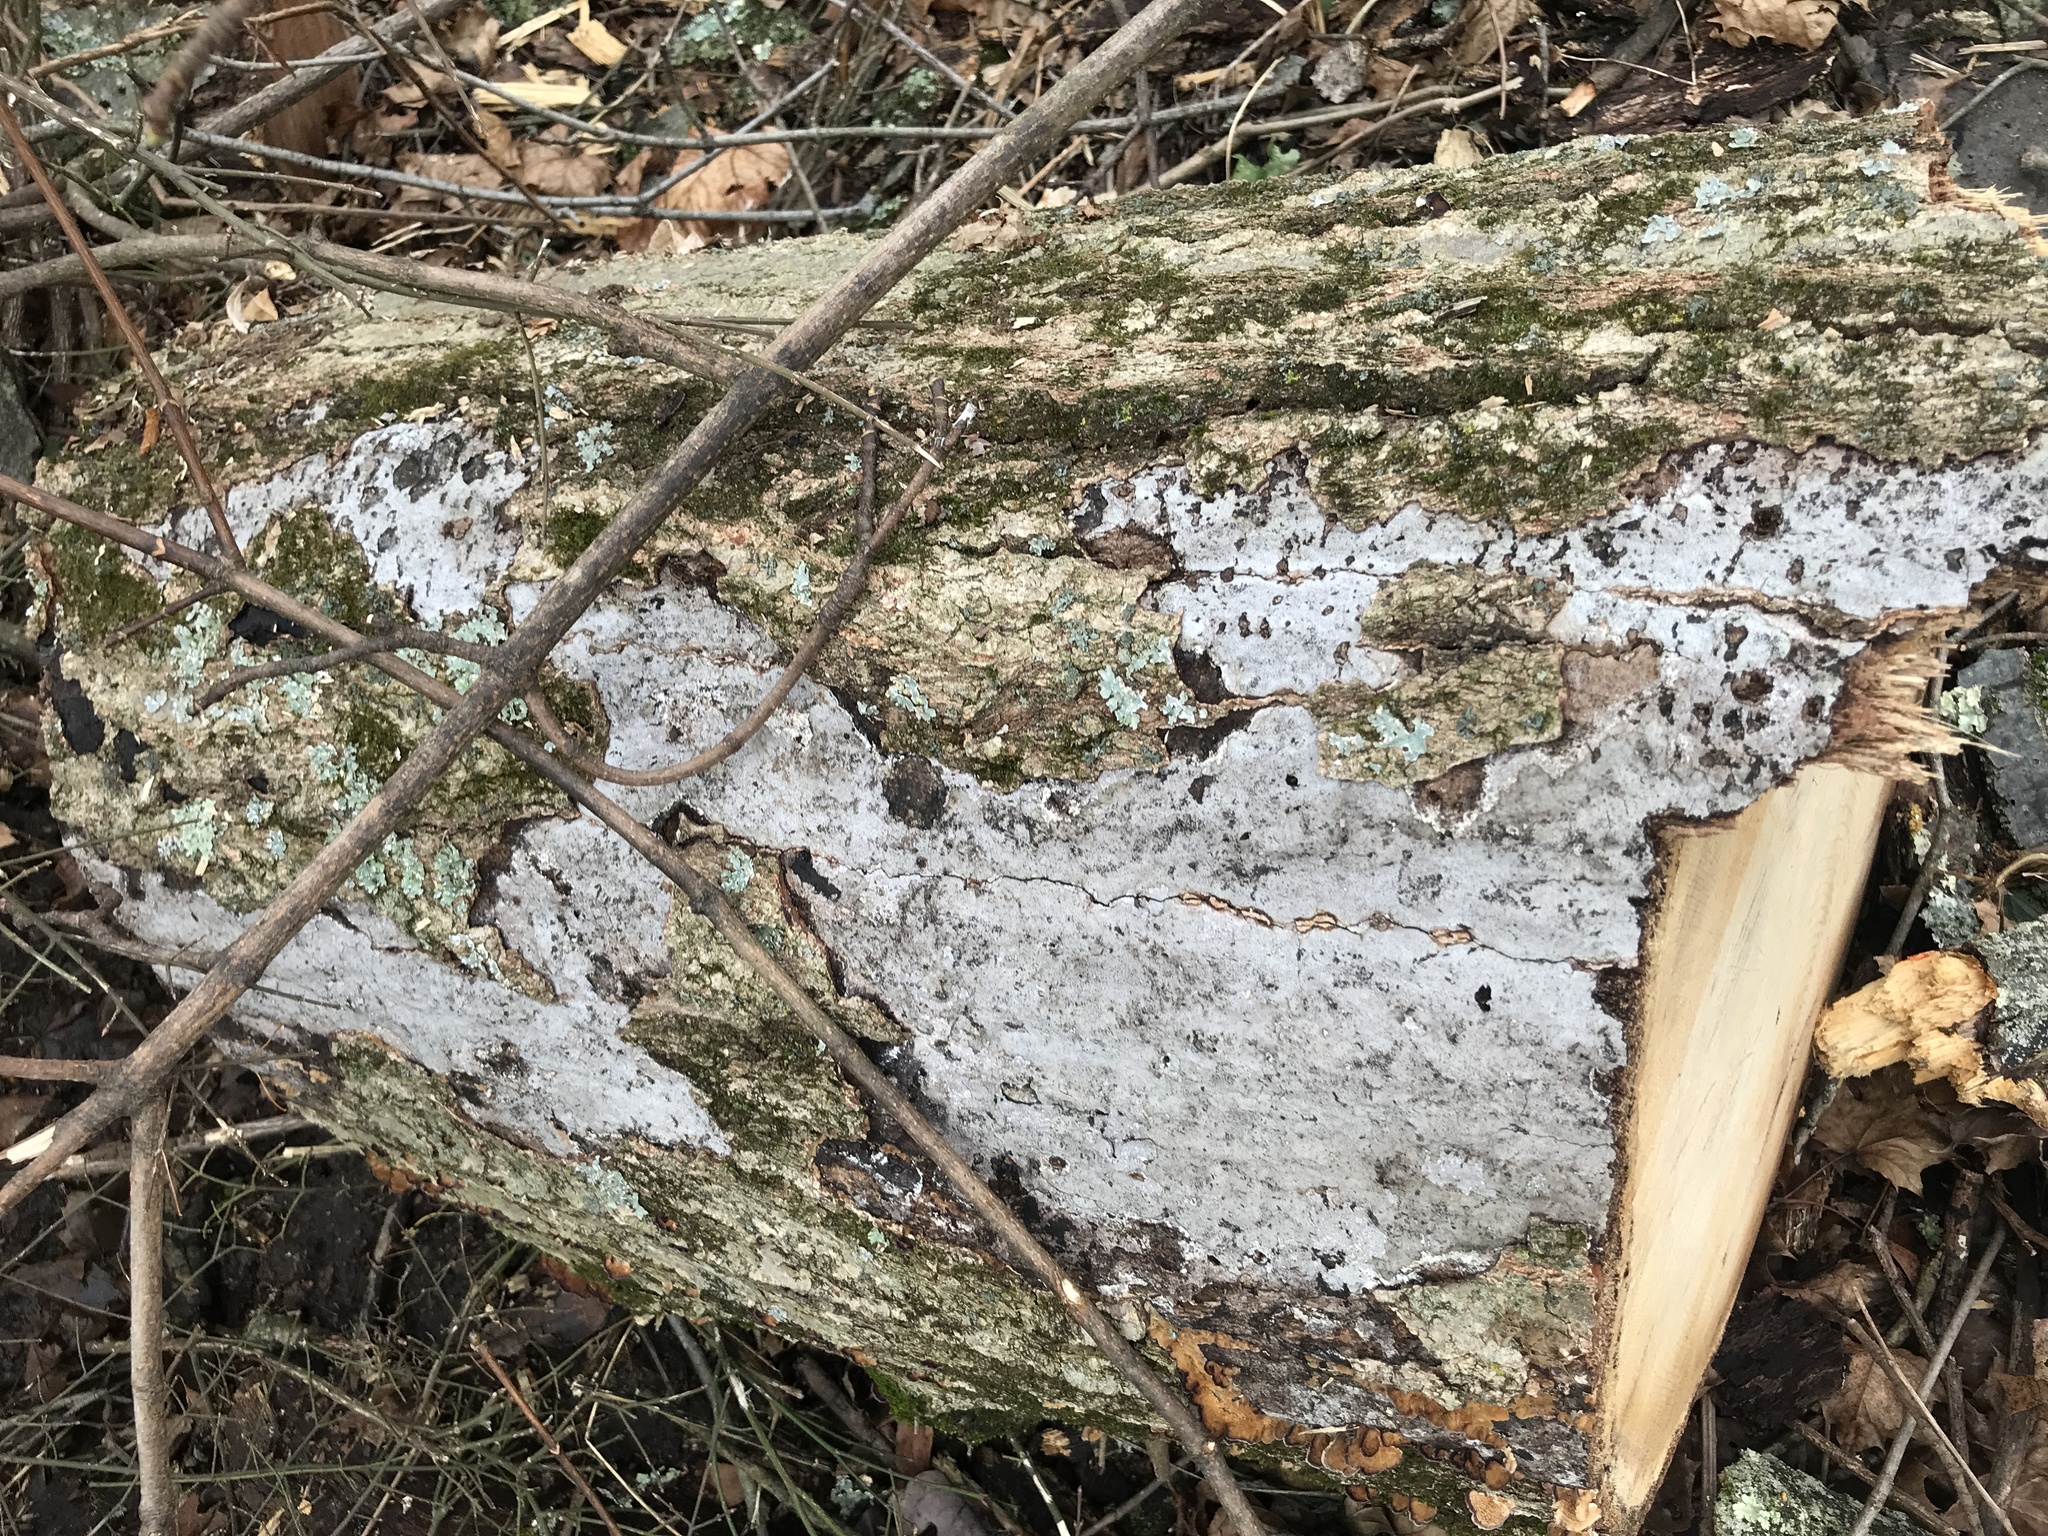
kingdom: Fungi
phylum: Ascomycota
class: Sordariomycetes
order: Xylariales
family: Graphostromataceae
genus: Biscogniauxia
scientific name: Biscogniauxia atropunctata
